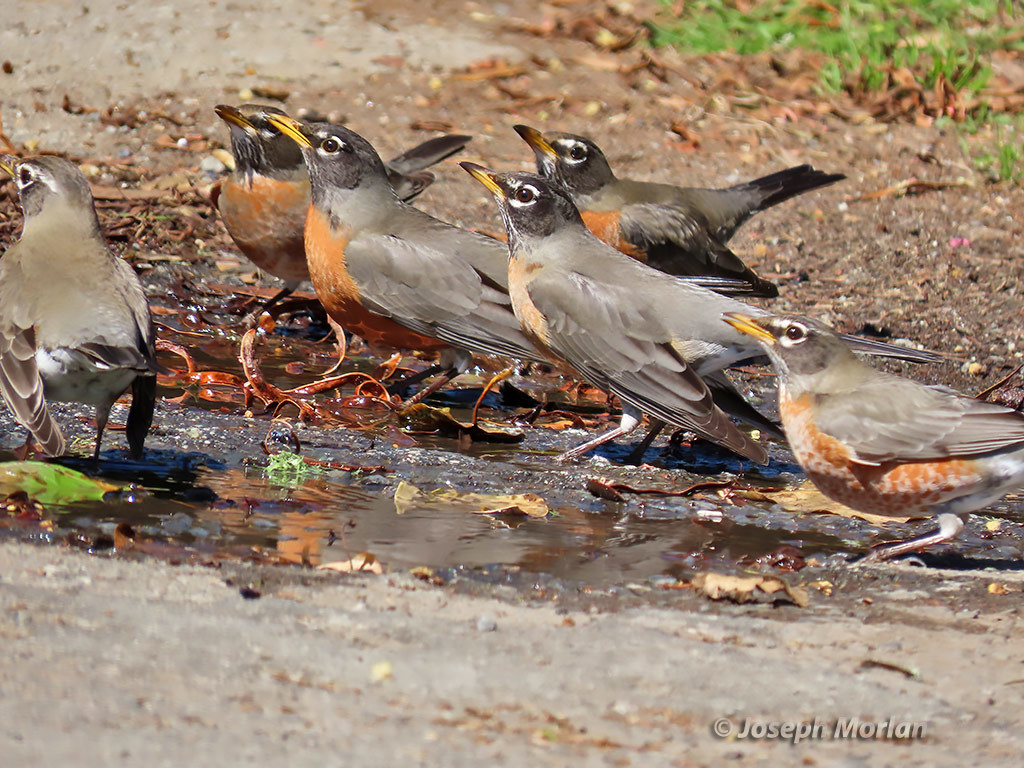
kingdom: Animalia
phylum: Chordata
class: Aves
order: Passeriformes
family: Turdidae
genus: Turdus
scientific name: Turdus migratorius
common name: American robin
